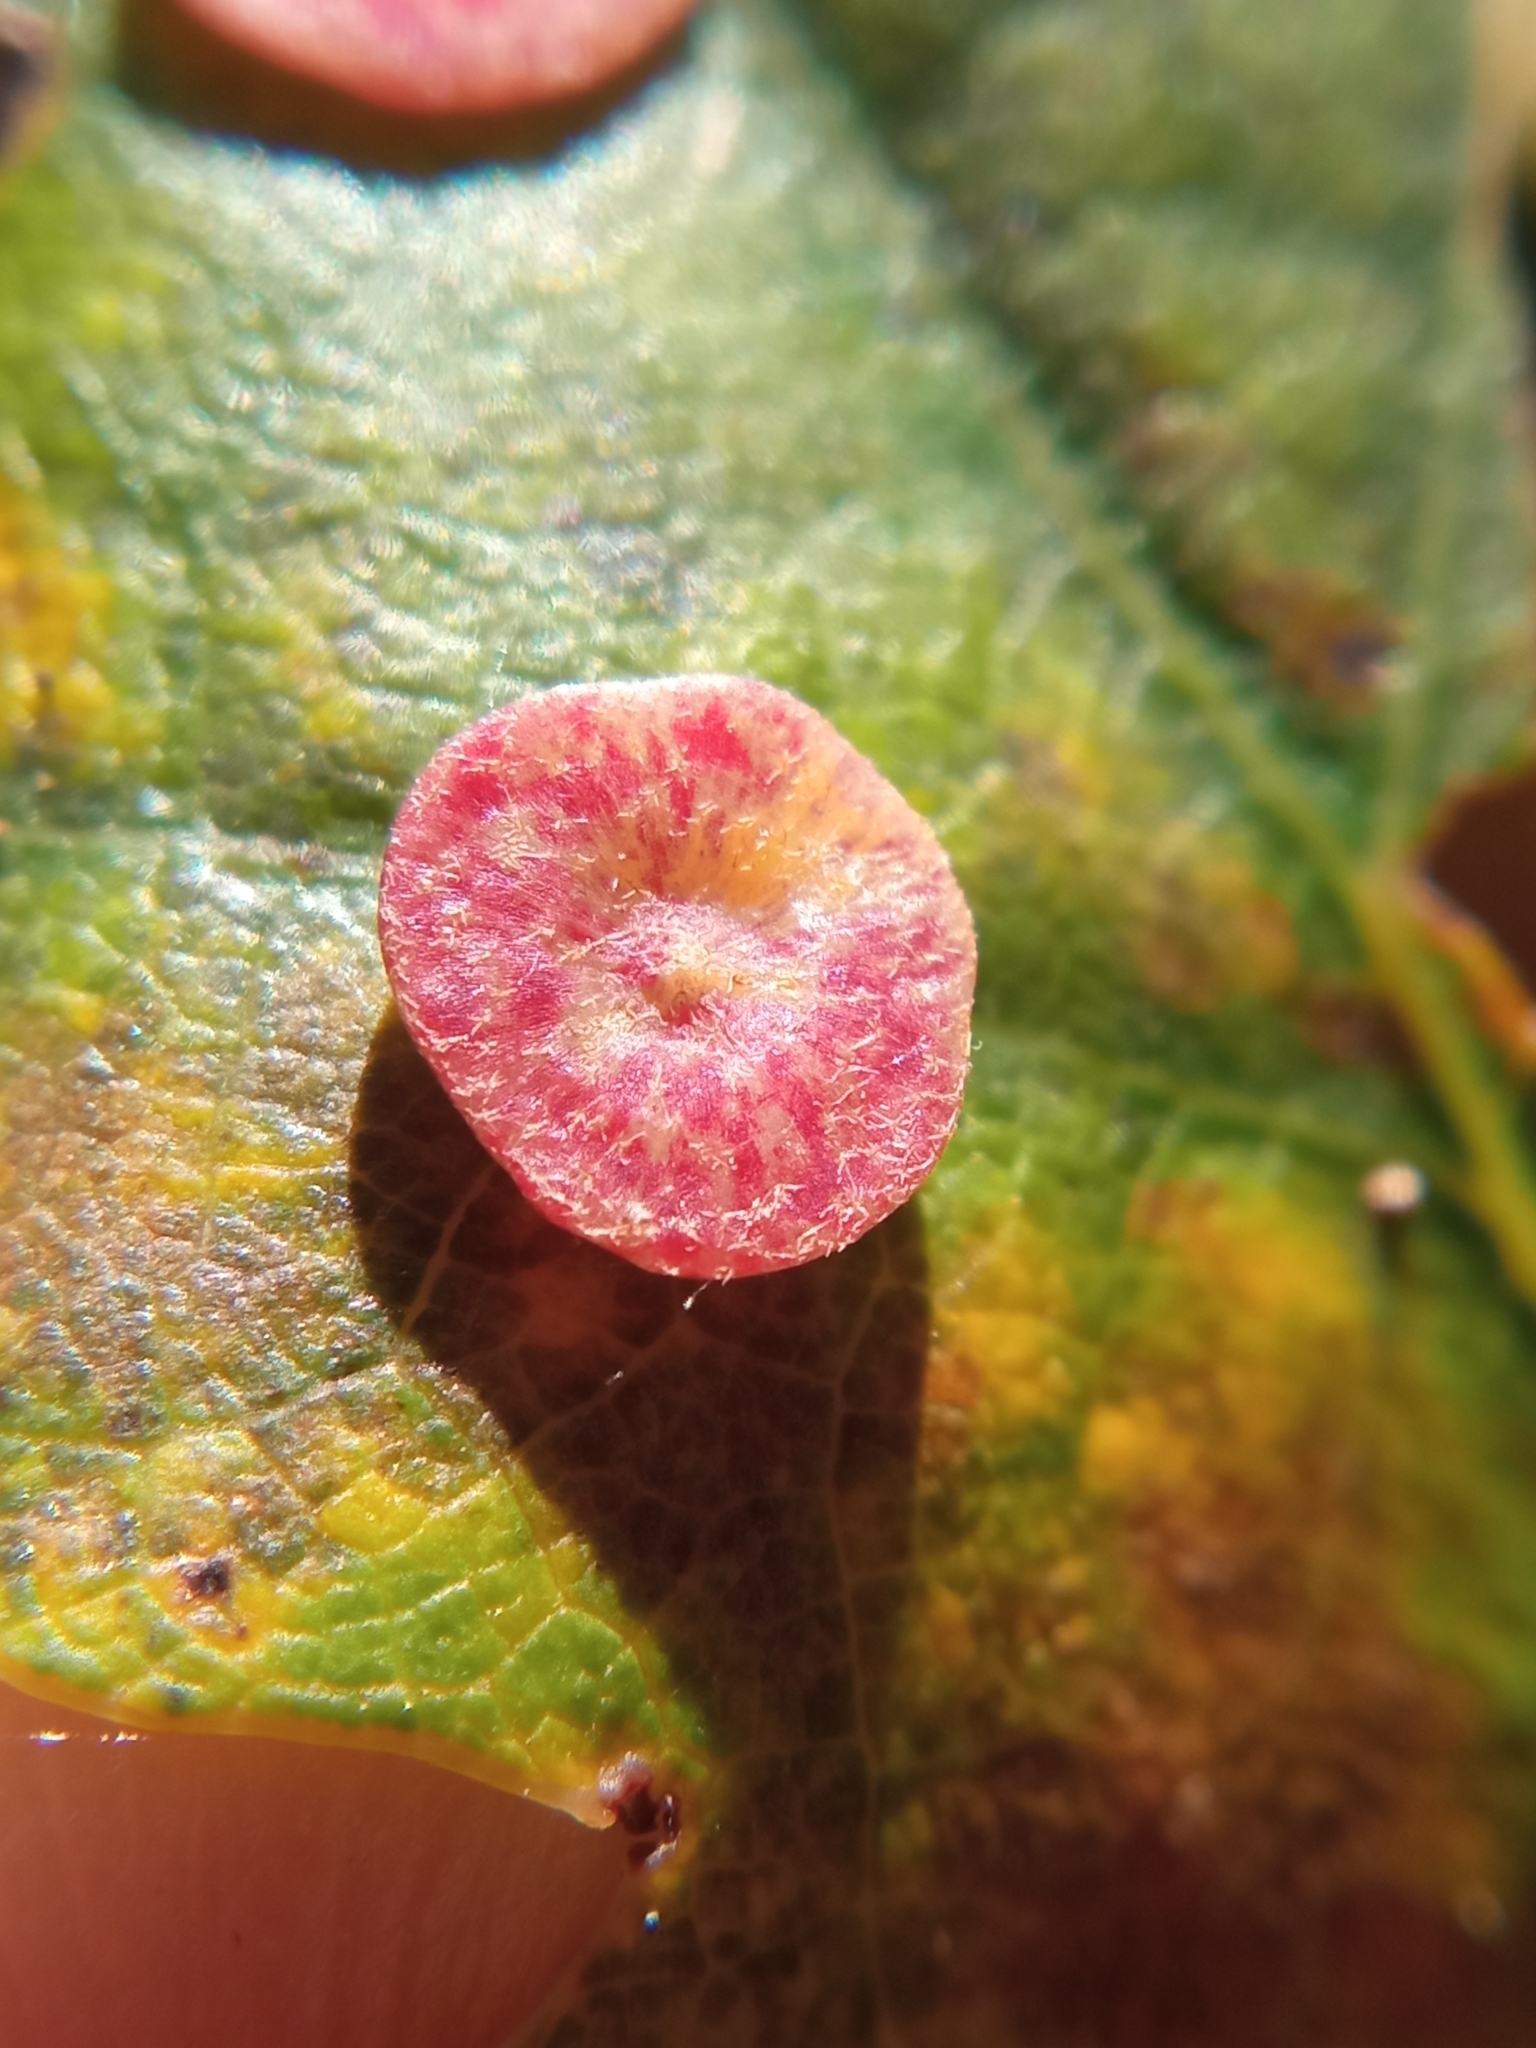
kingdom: Animalia
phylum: Arthropoda
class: Insecta
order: Hymenoptera
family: Cynipidae
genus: Neuroterus
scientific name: Neuroterus quercusbaccarum
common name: Common spangle gall
